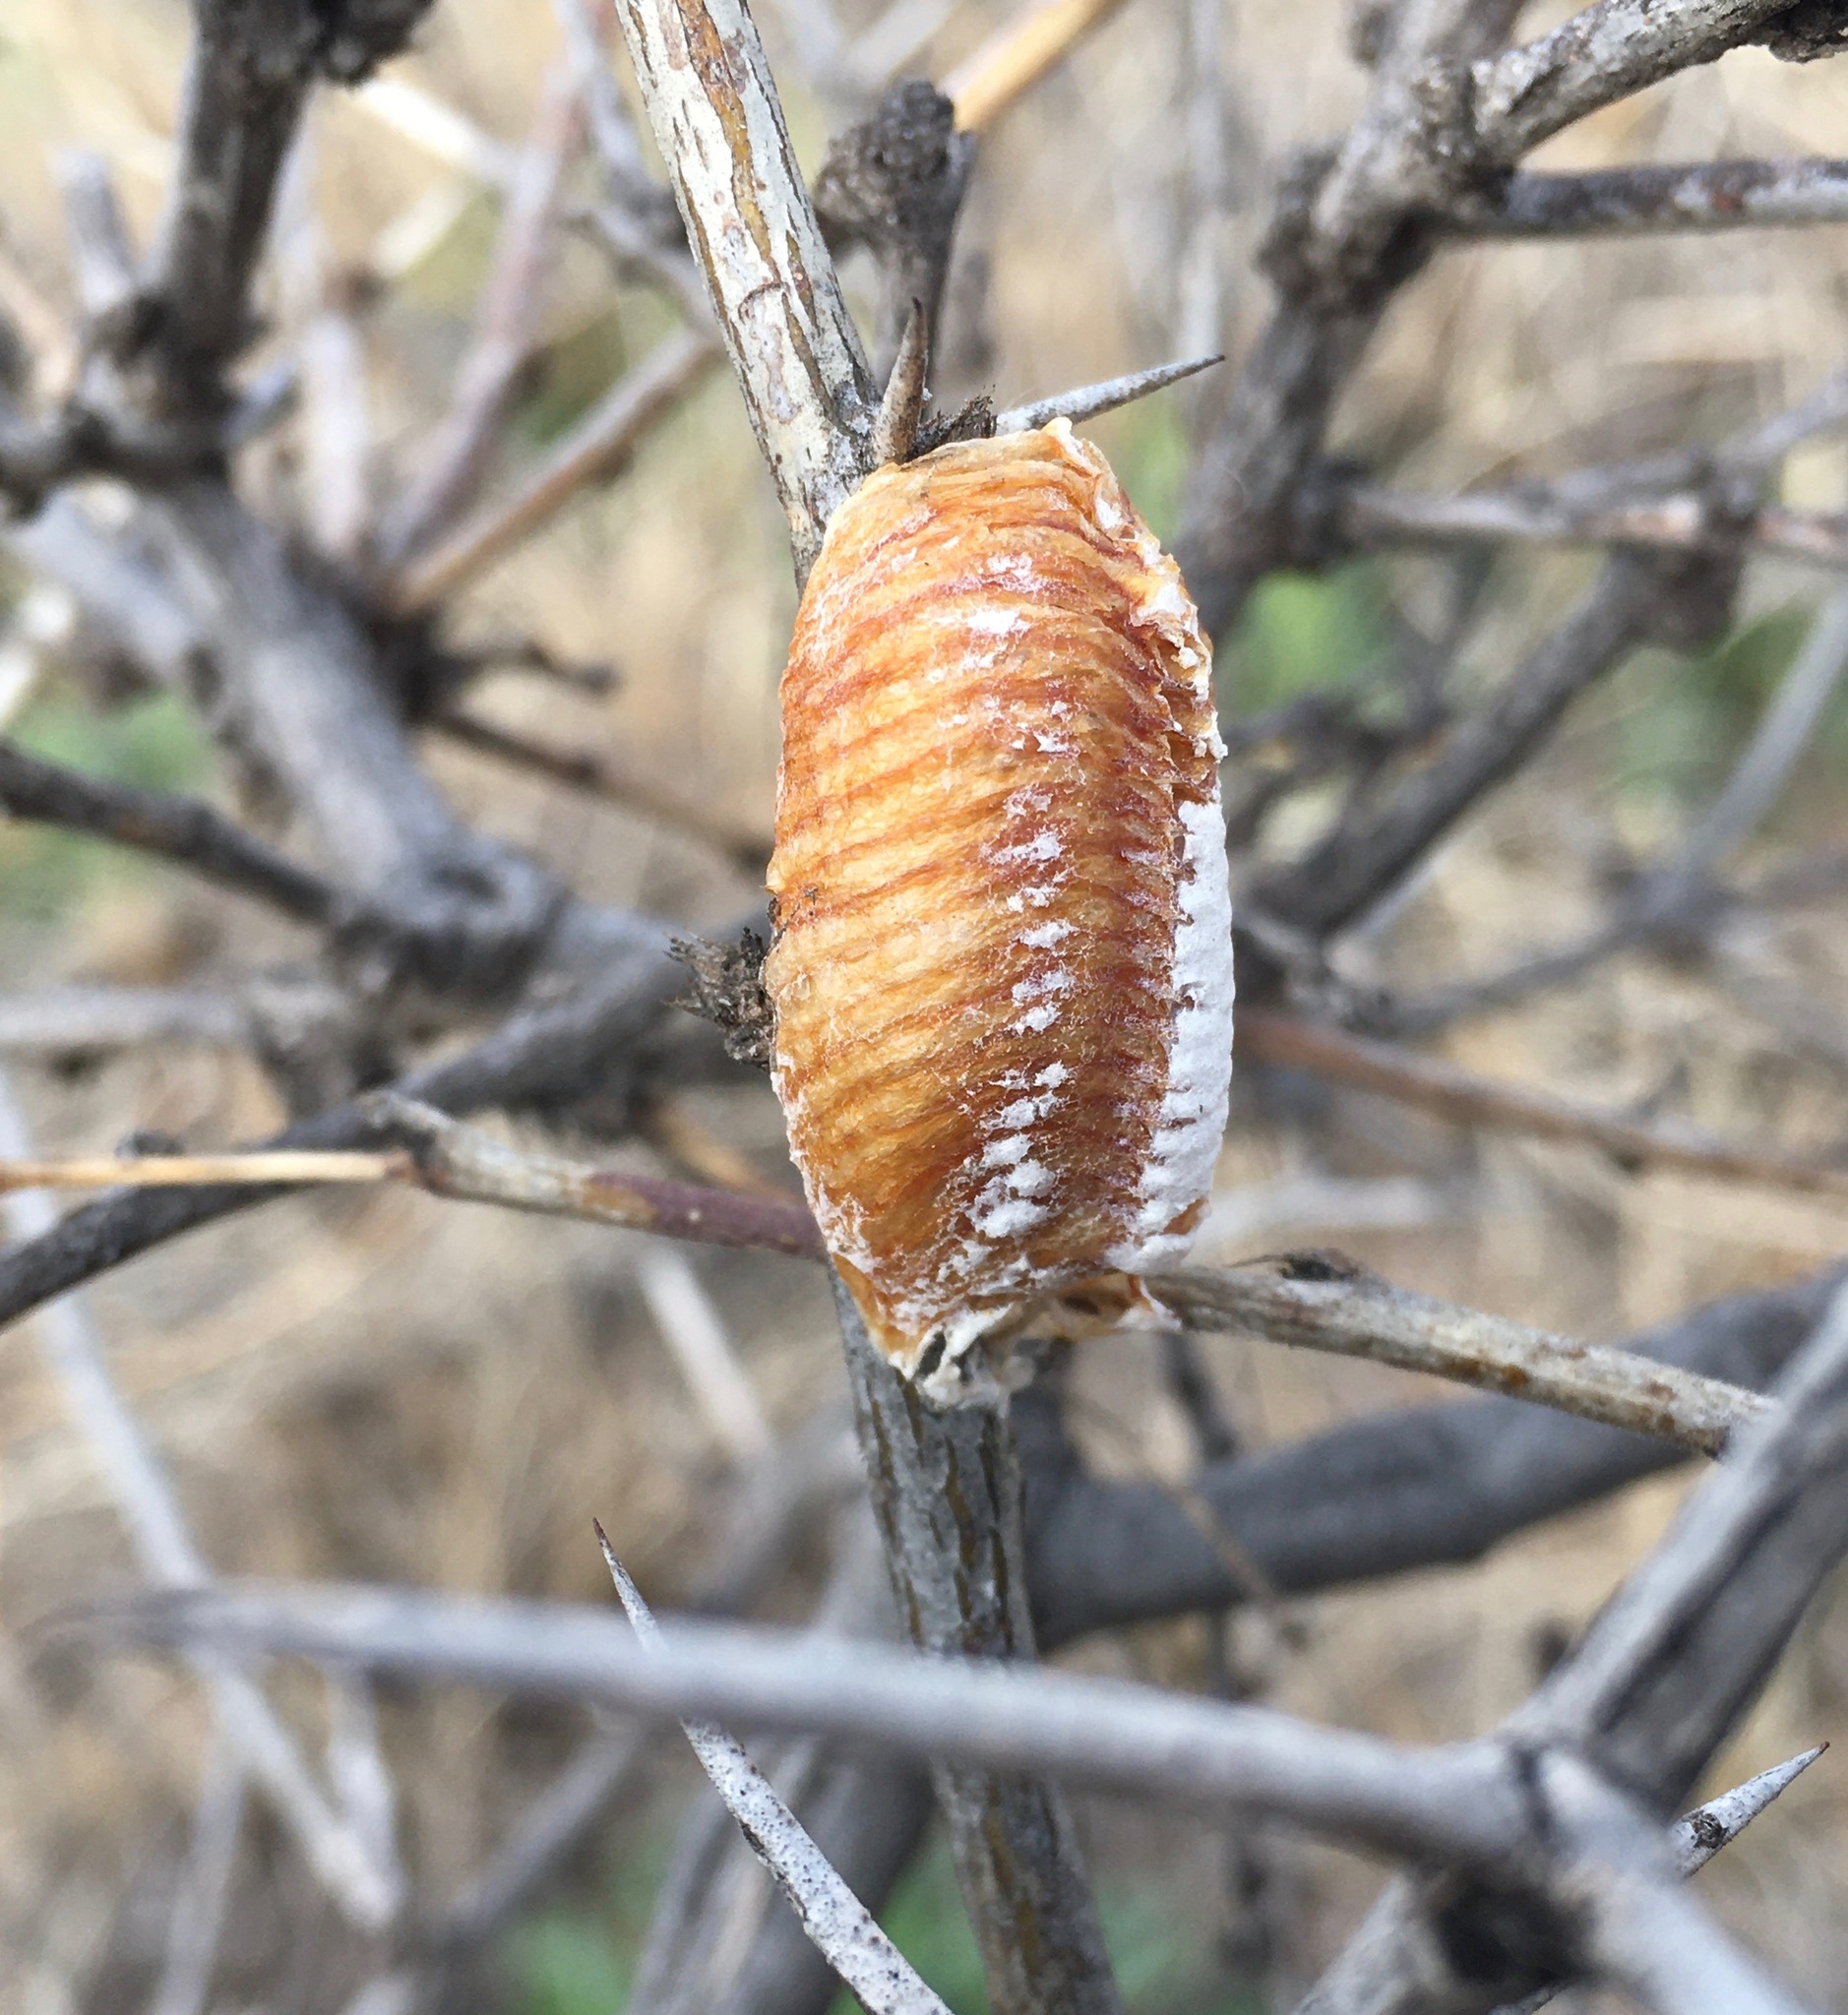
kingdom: Animalia
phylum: Arthropoda
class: Insecta
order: Mantodea
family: Mantidae
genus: Stagmomantis
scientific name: Stagmomantis limbata
